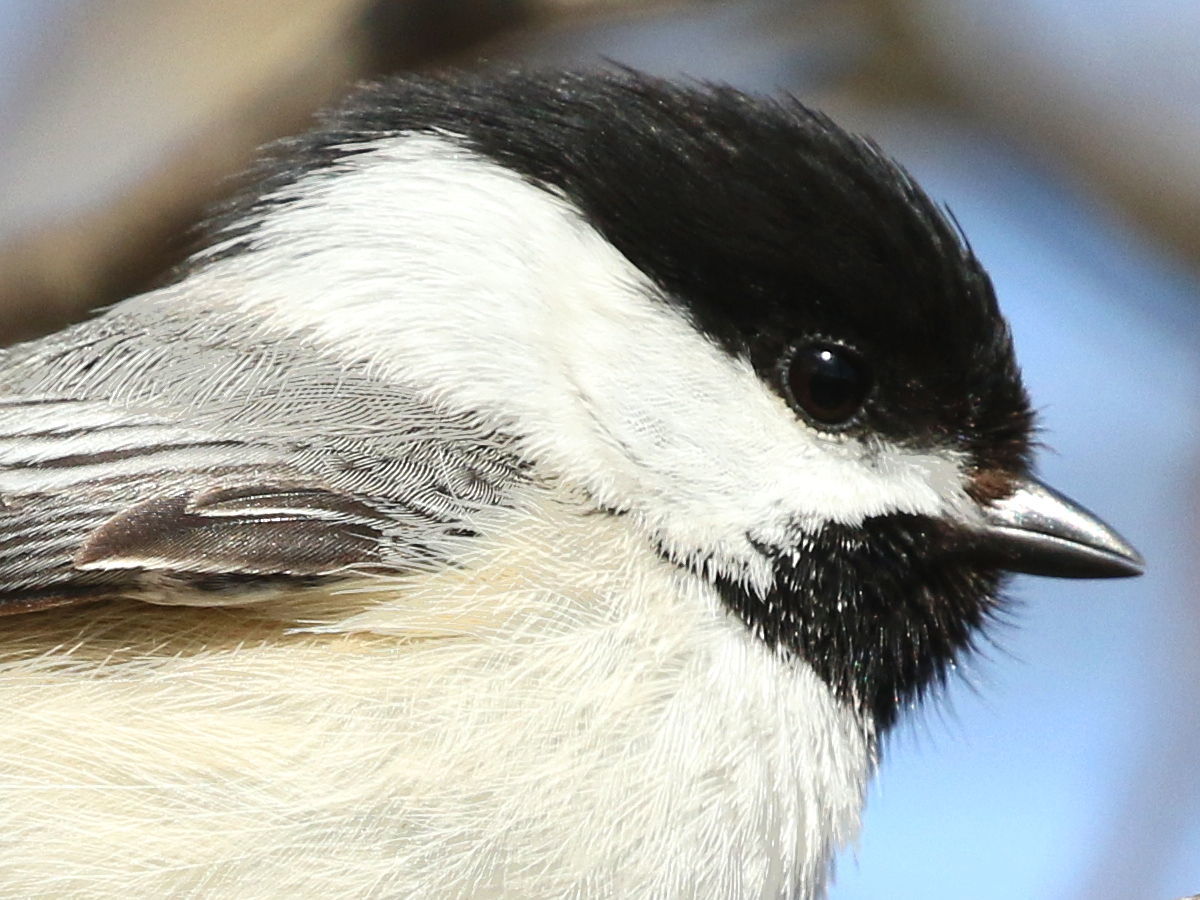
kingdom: Animalia
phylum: Chordata
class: Aves
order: Passeriformes
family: Paridae
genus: Poecile
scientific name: Poecile atricapillus
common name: Black-capped chickadee
